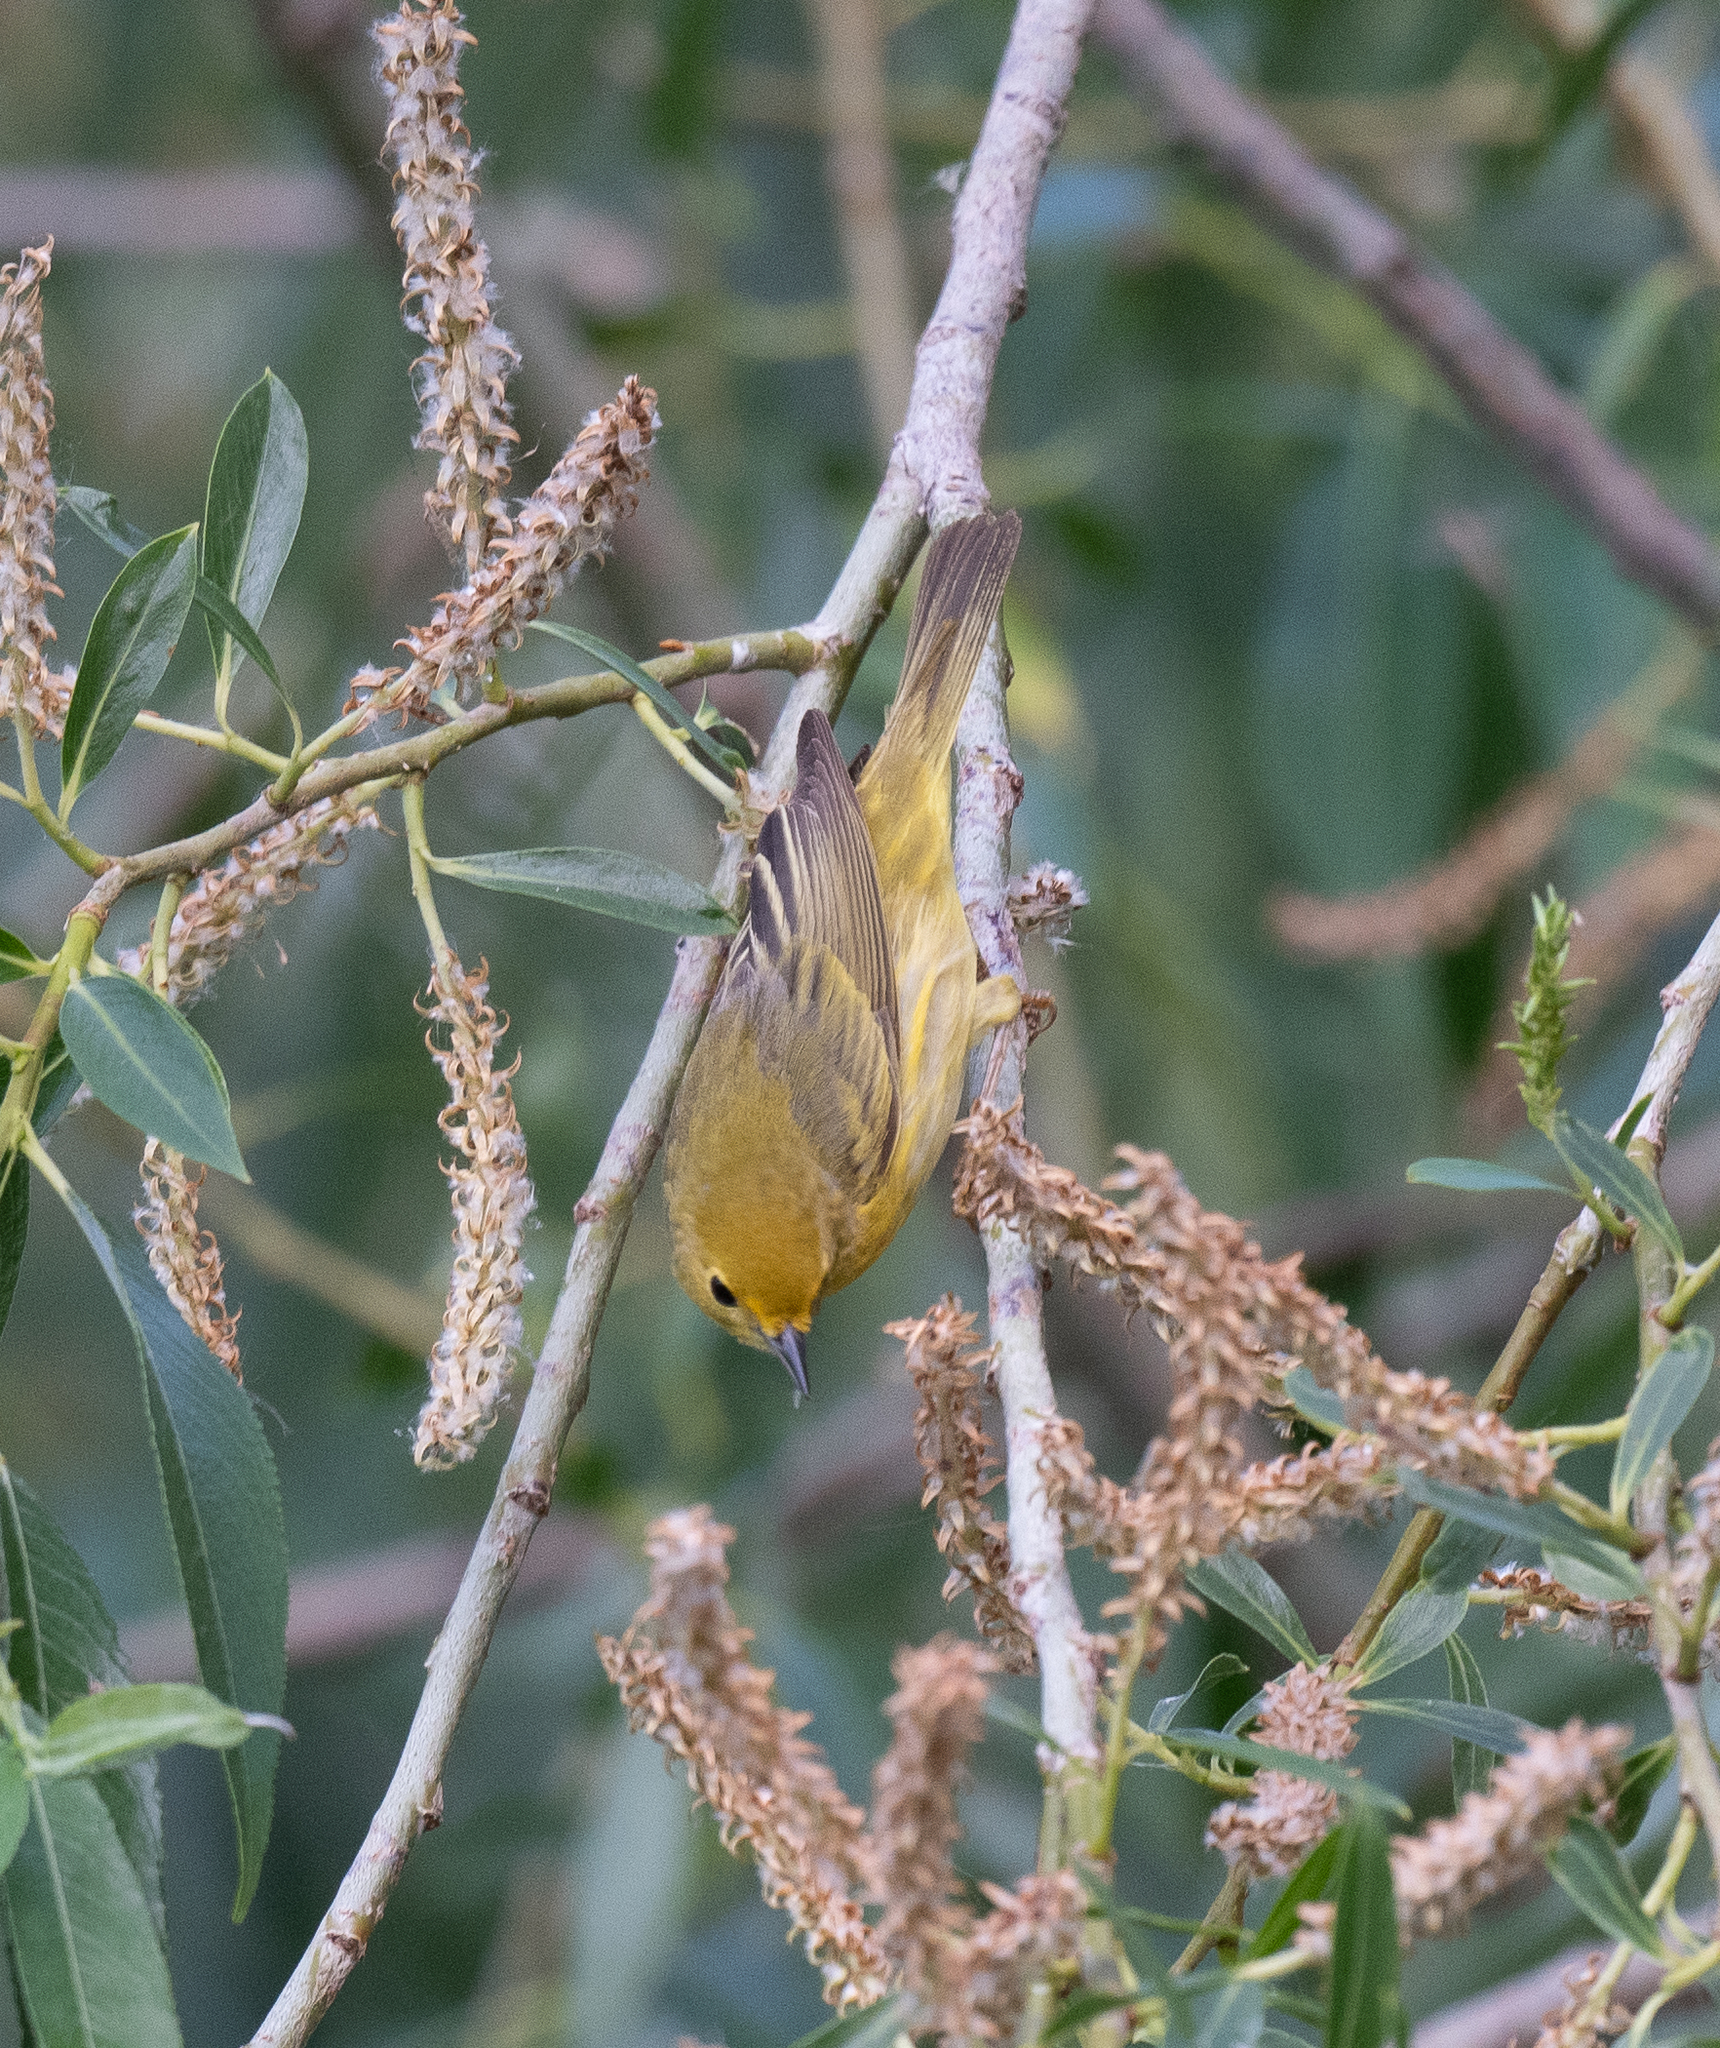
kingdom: Animalia
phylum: Chordata
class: Aves
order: Passeriformes
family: Parulidae
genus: Setophaga
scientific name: Setophaga petechia
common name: Yellow warbler
